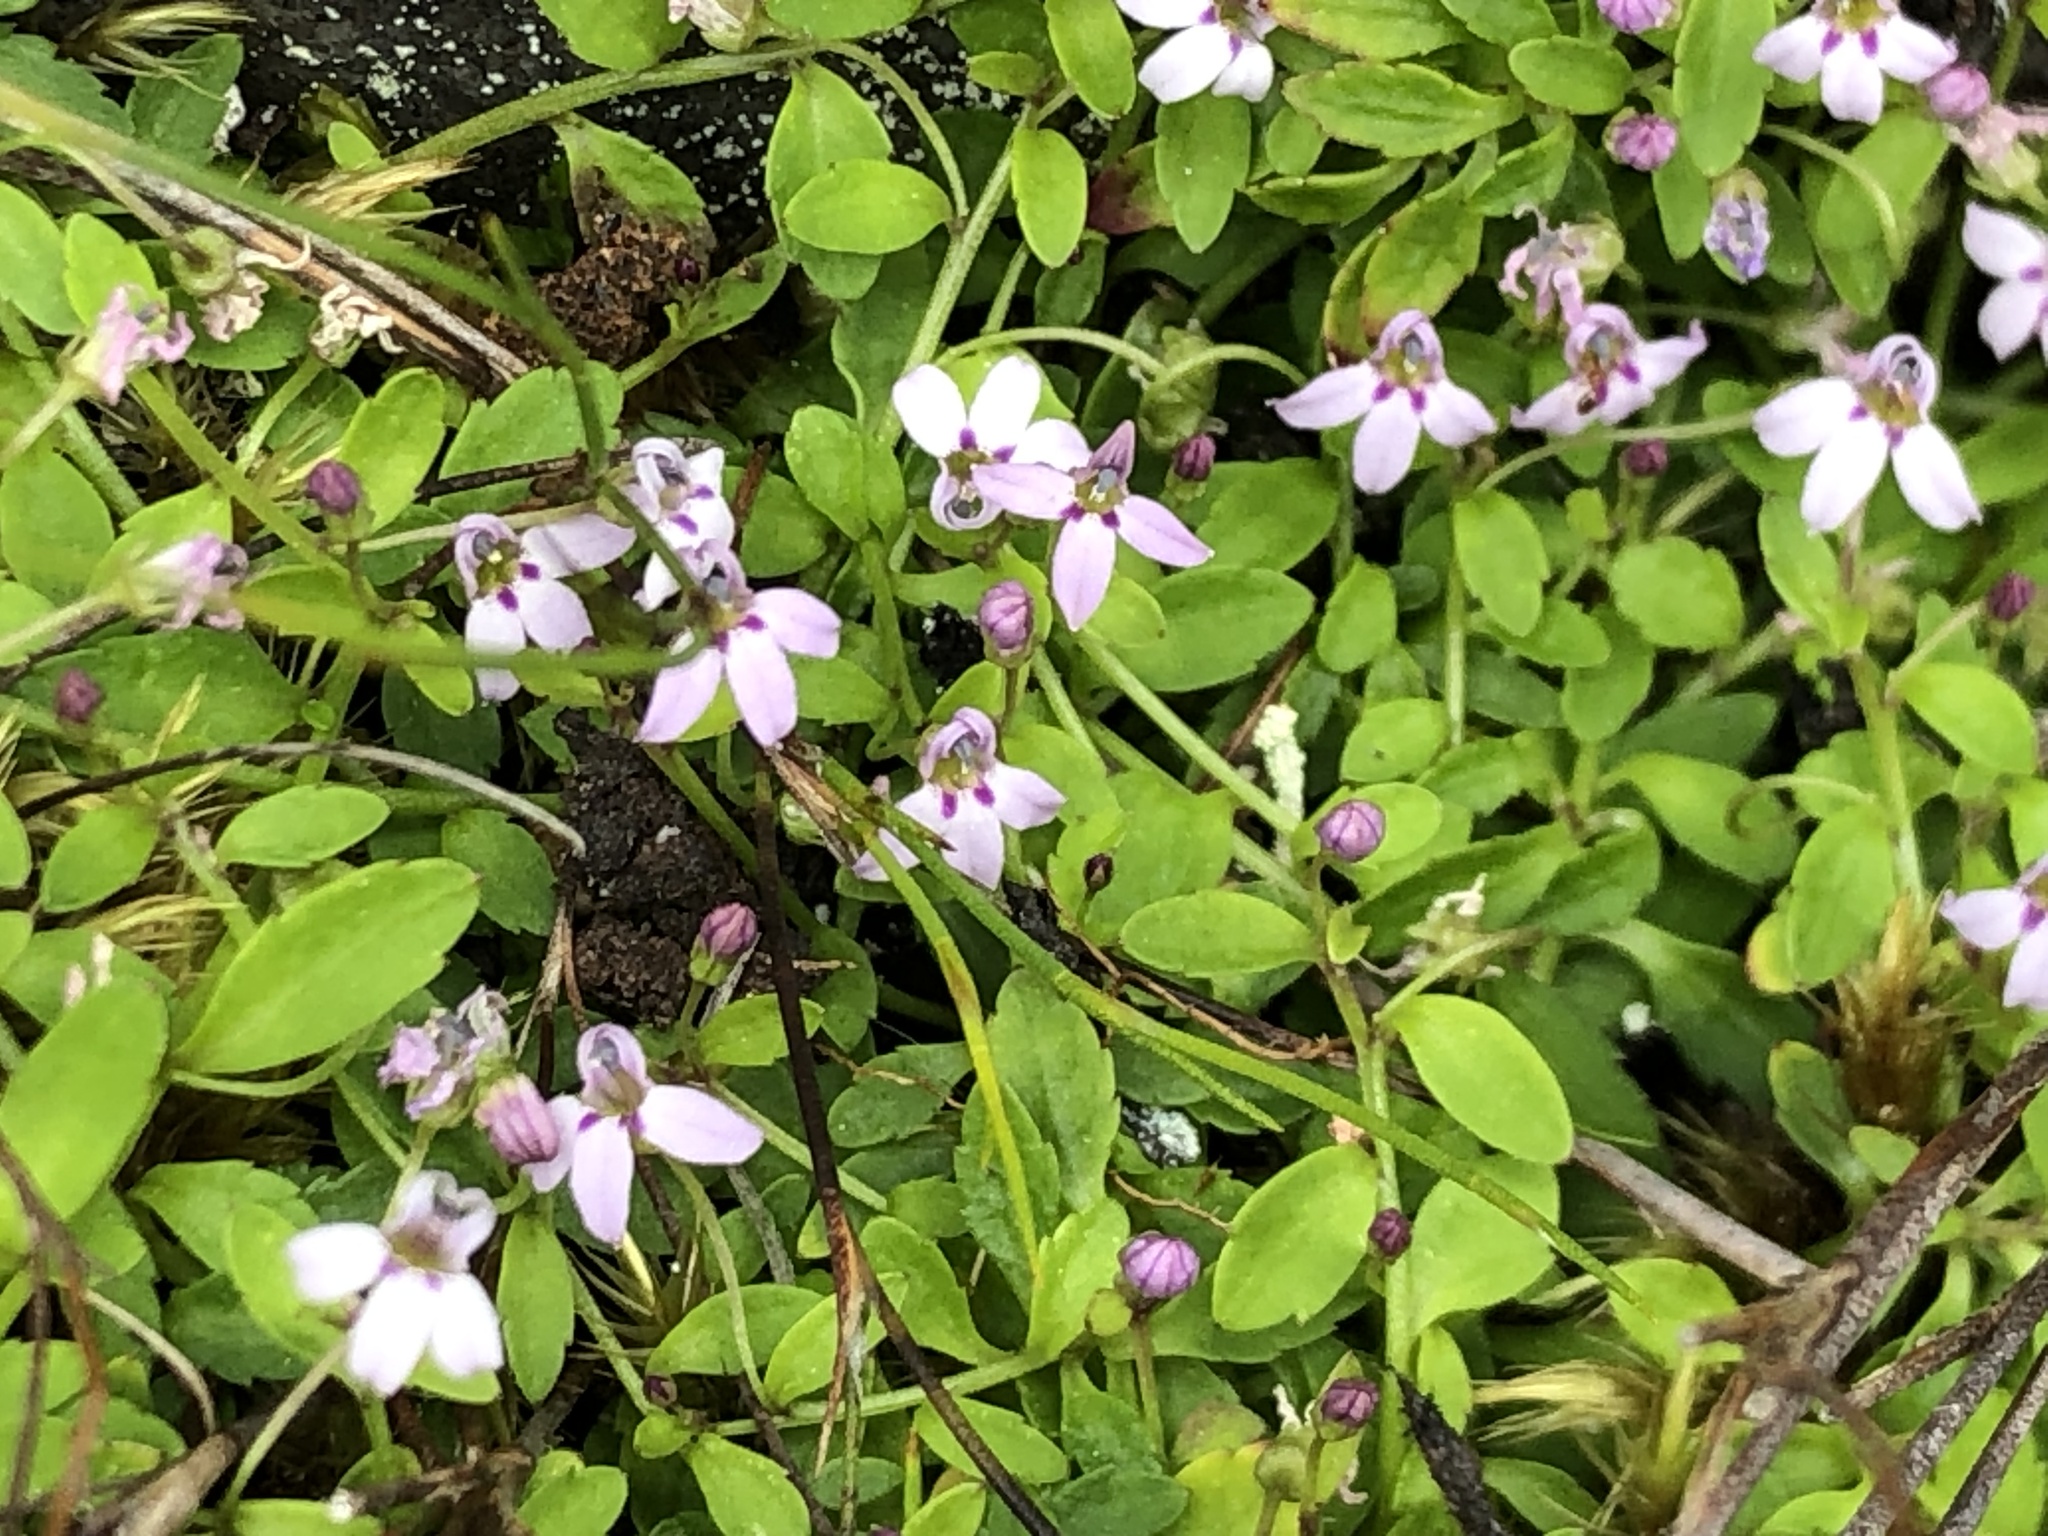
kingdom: Plantae
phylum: Tracheophyta
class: Magnoliopsida
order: Asterales
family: Campanulaceae
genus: Unigenes
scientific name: Unigenes humifusa
